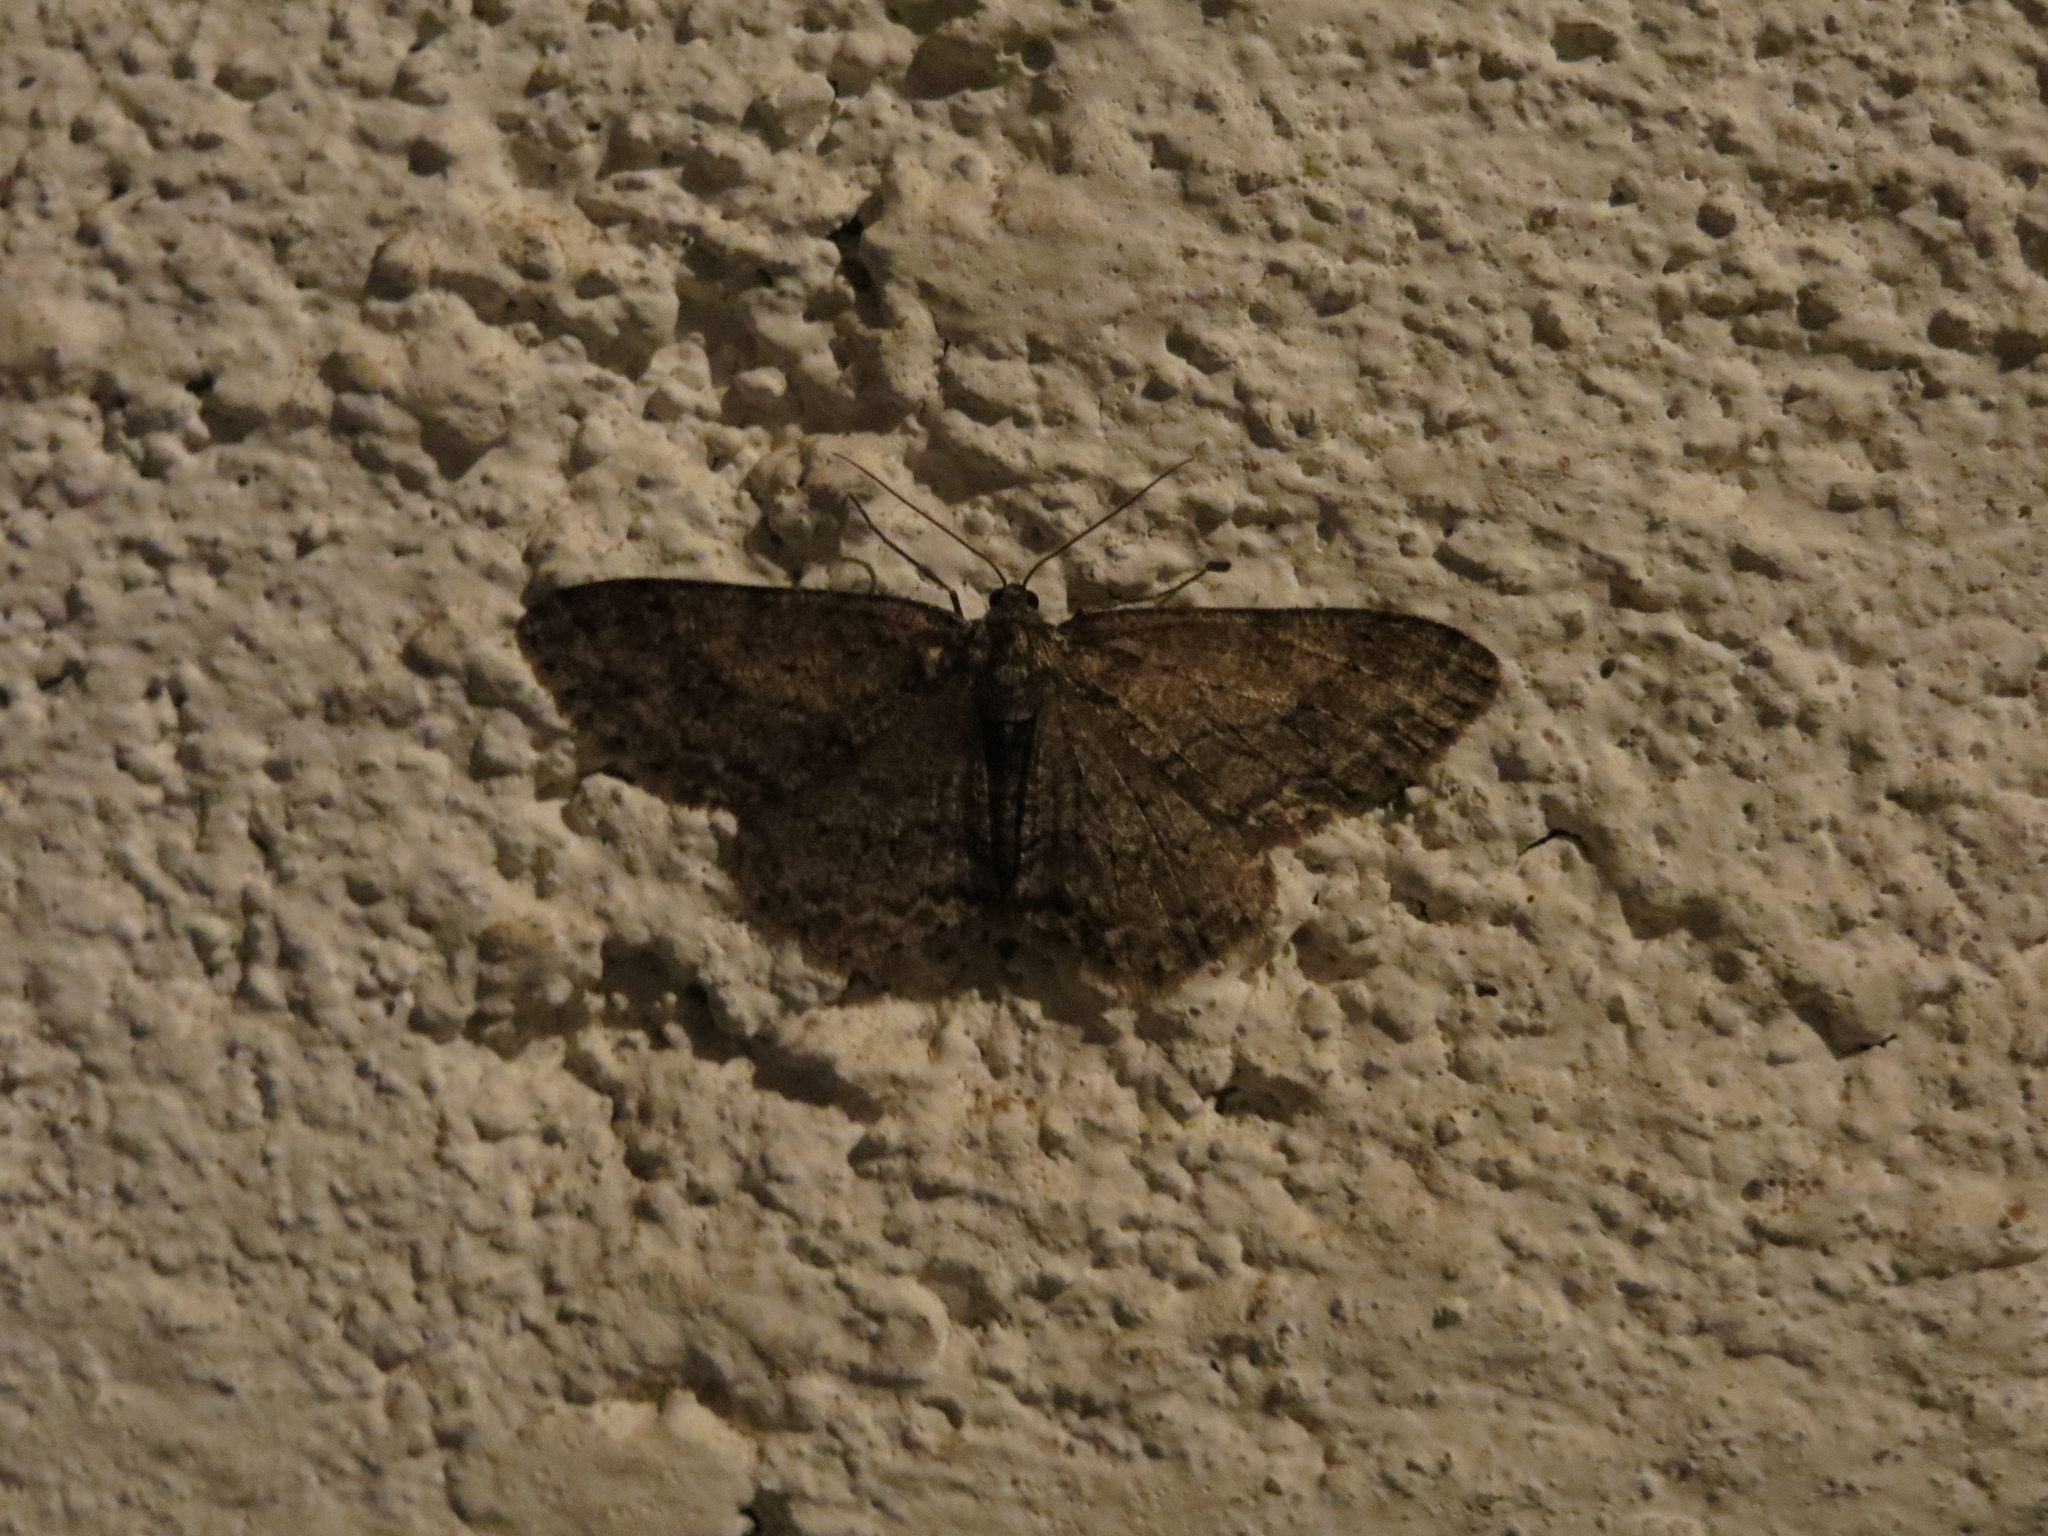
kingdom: Animalia
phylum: Arthropoda
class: Insecta
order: Lepidoptera
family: Geometridae
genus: Ectropis
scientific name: Ectropis crepuscularia
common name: Engrailed
